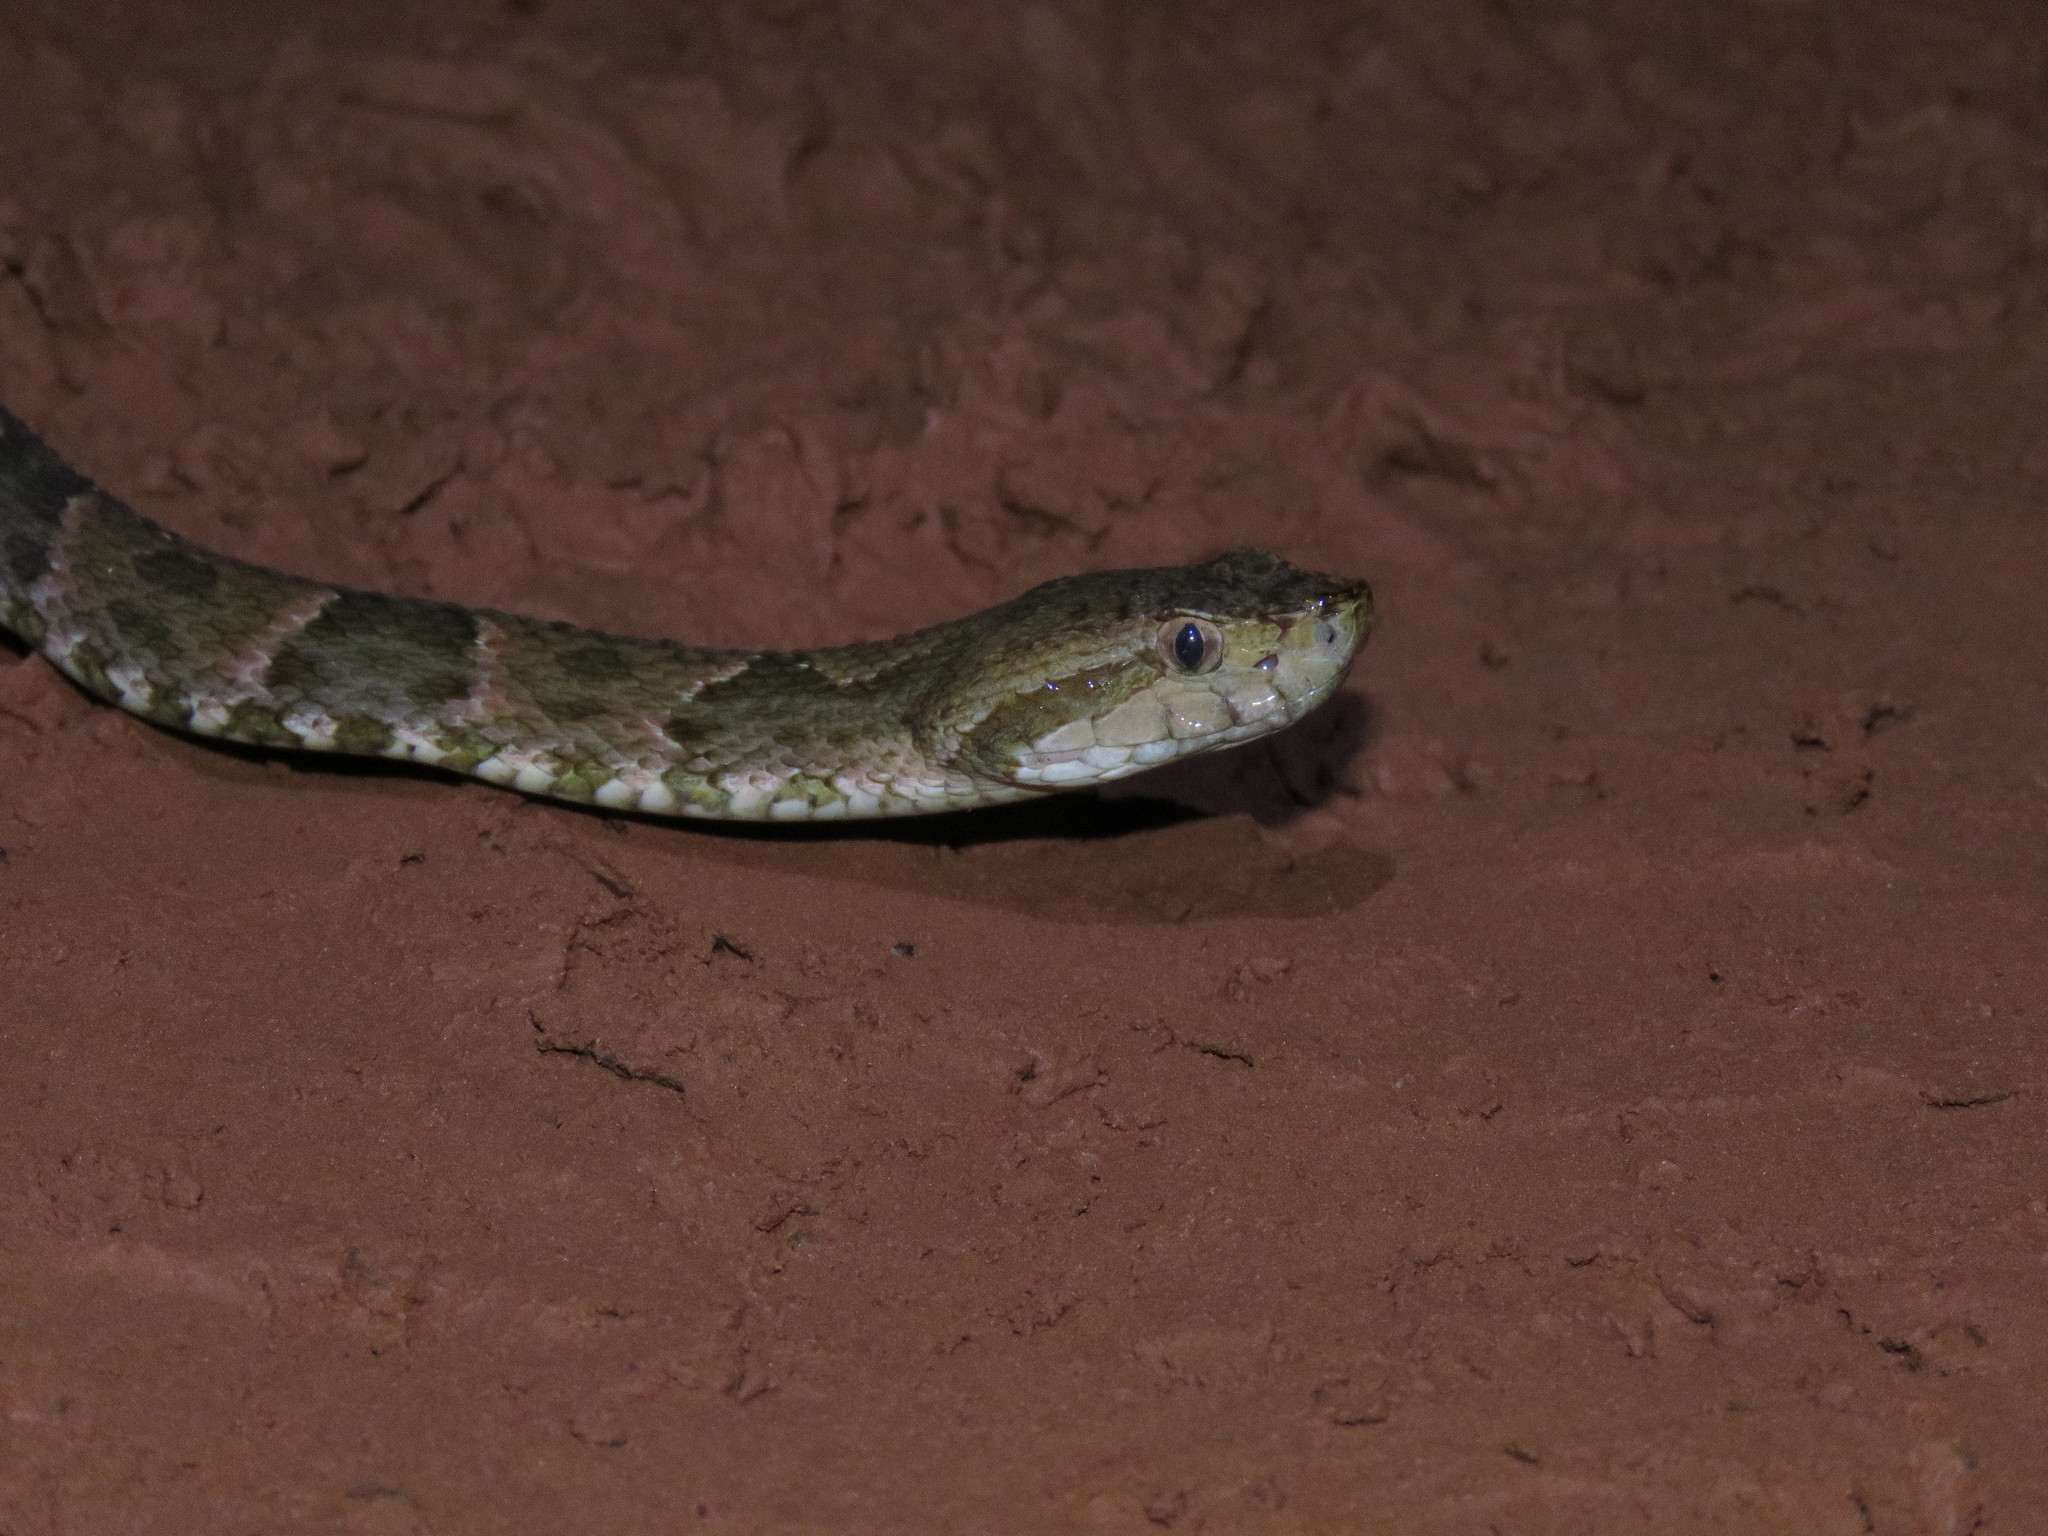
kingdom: Animalia
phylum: Chordata
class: Squamata
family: Viperidae
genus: Bothrops
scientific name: Bothrops atrox
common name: Common lancehead
